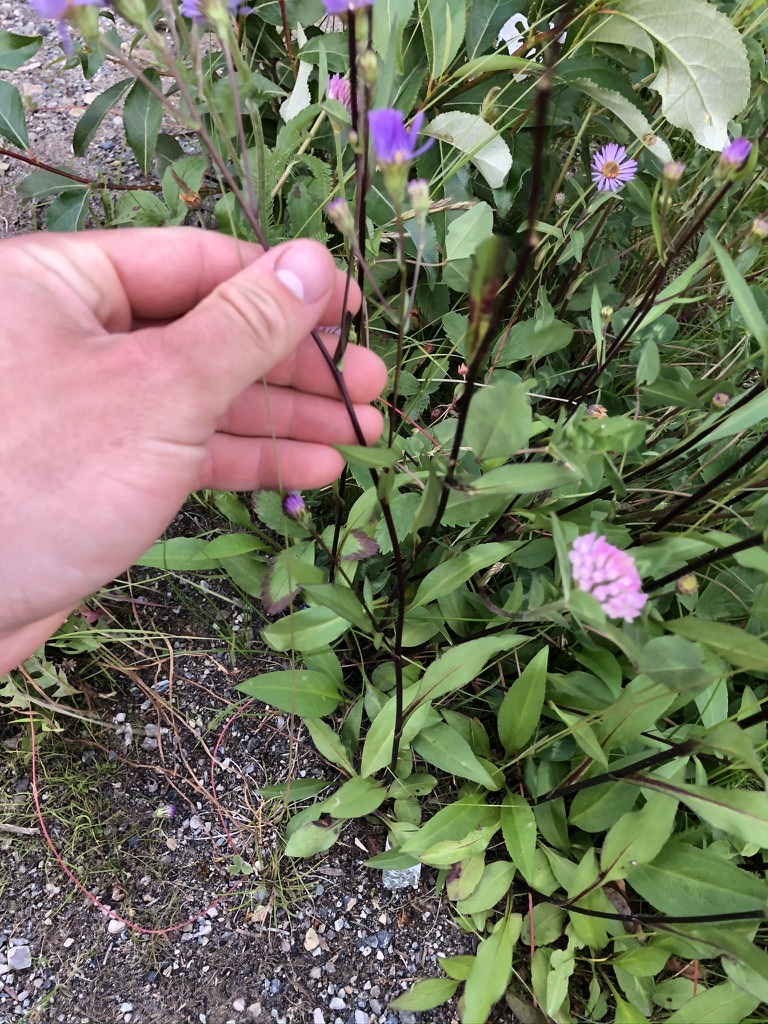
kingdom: Plantae
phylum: Tracheophyta
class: Magnoliopsida
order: Asterales
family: Asteraceae
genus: Symphyotrichum
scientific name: Symphyotrichum ciliolatum
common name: Fringed blue aster
